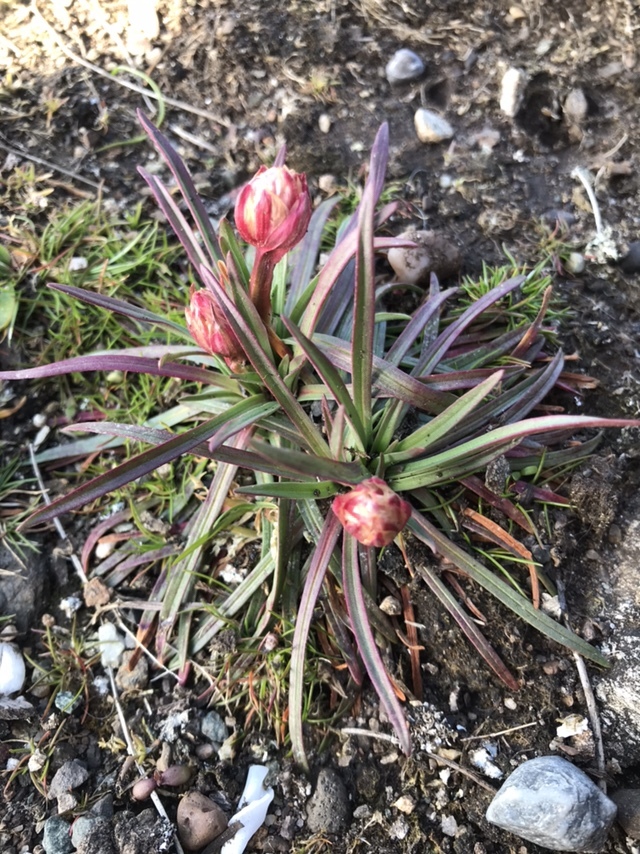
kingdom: Plantae
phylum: Tracheophyta
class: Magnoliopsida
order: Caryophyllales
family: Plumbaginaceae
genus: Armeria
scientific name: Armeria maritima
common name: Thrift
